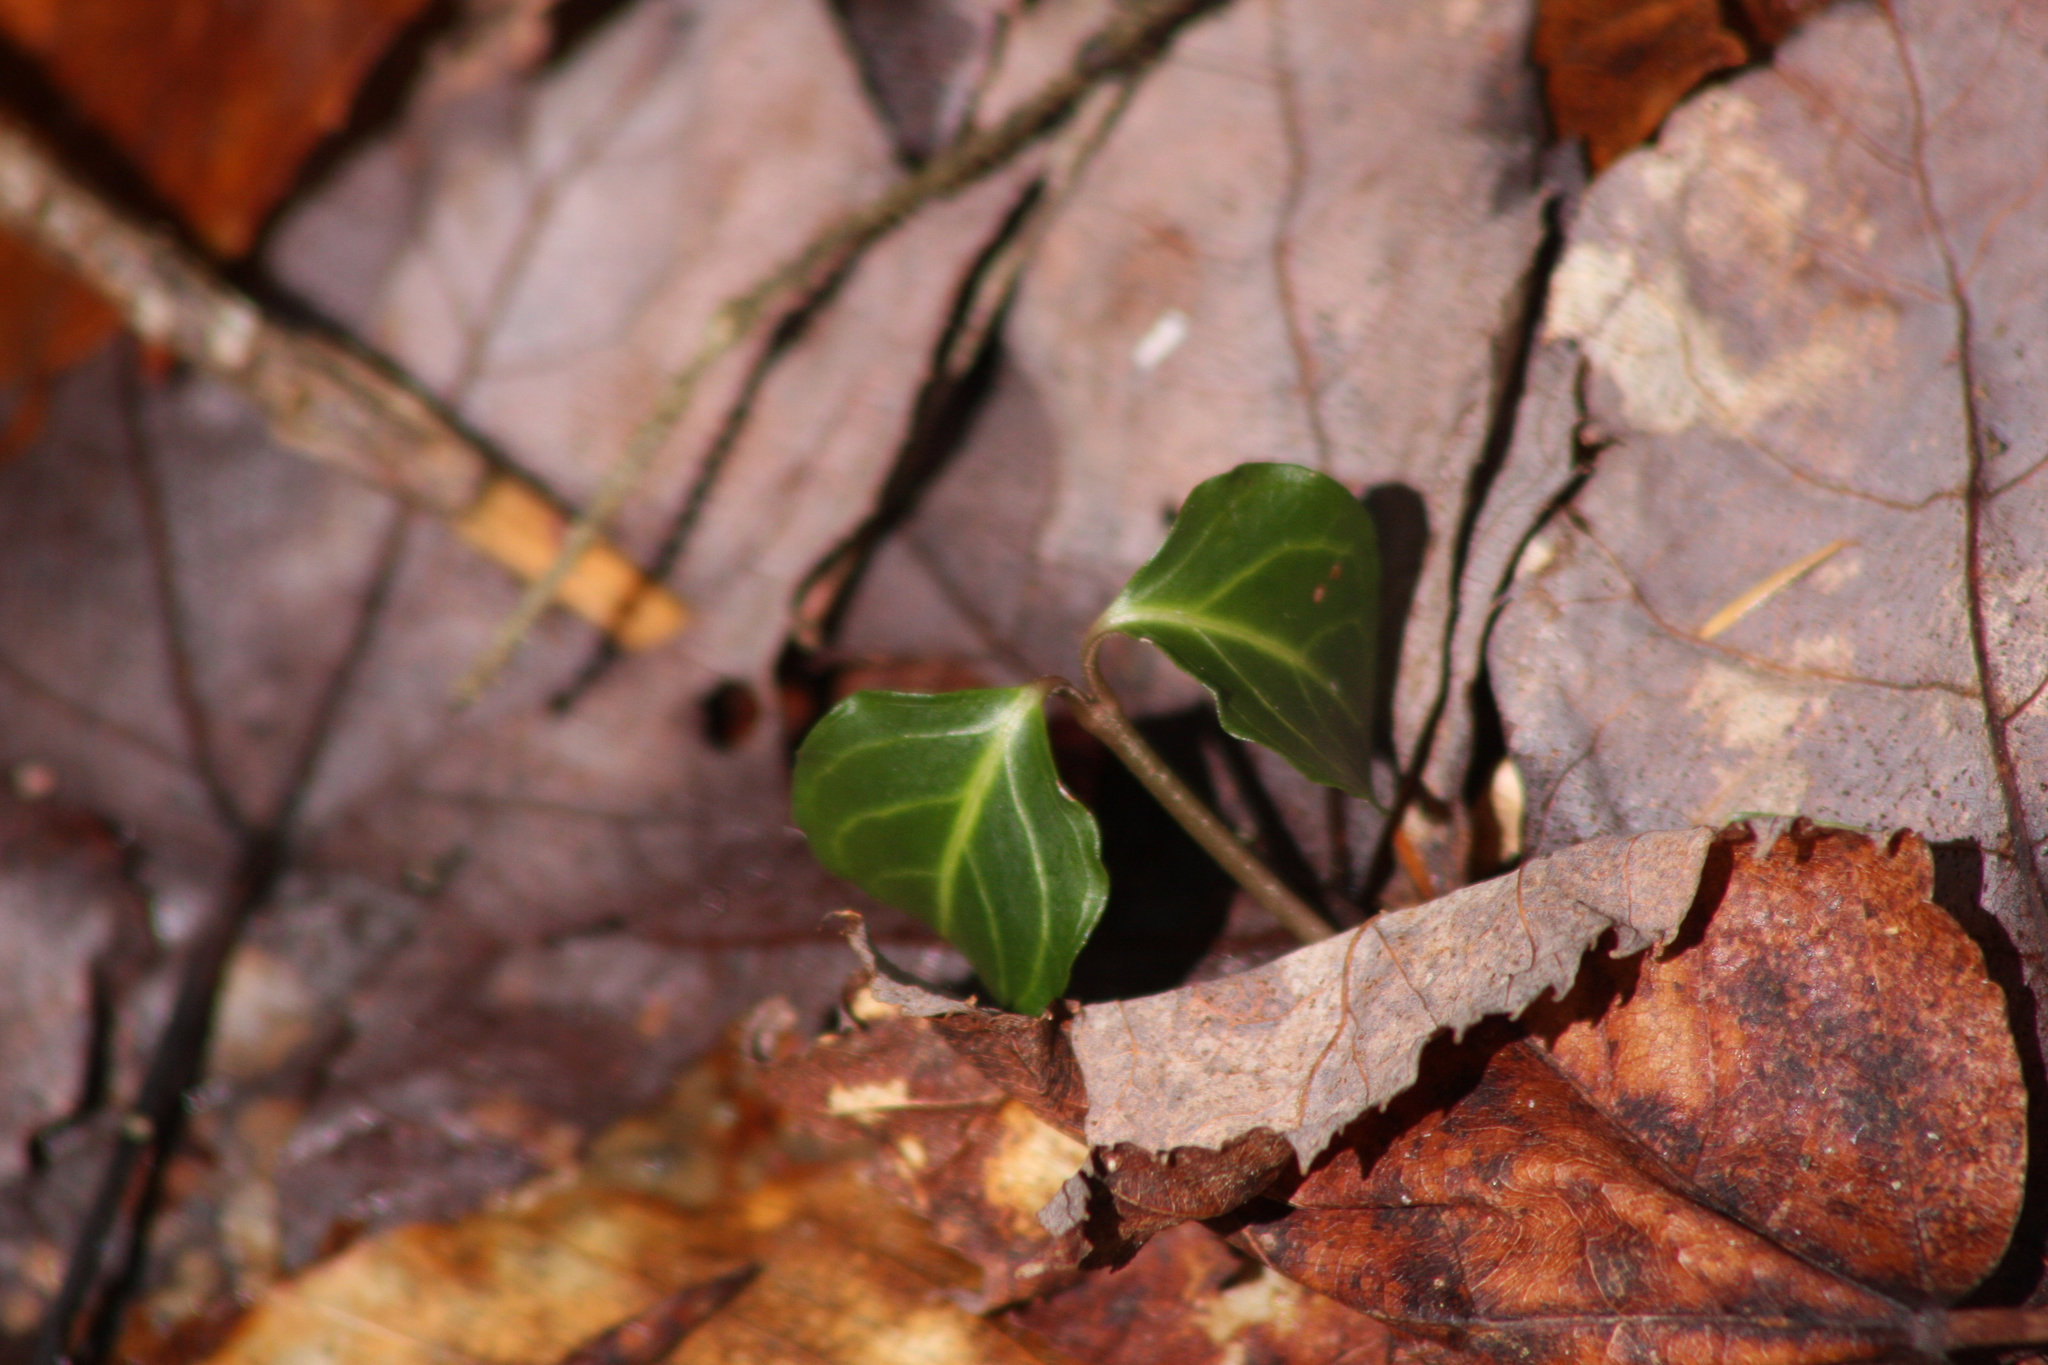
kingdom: Plantae
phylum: Tracheophyta
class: Magnoliopsida
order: Gentianales
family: Rubiaceae
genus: Mitchella
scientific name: Mitchella repens
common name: Partridge-berry
